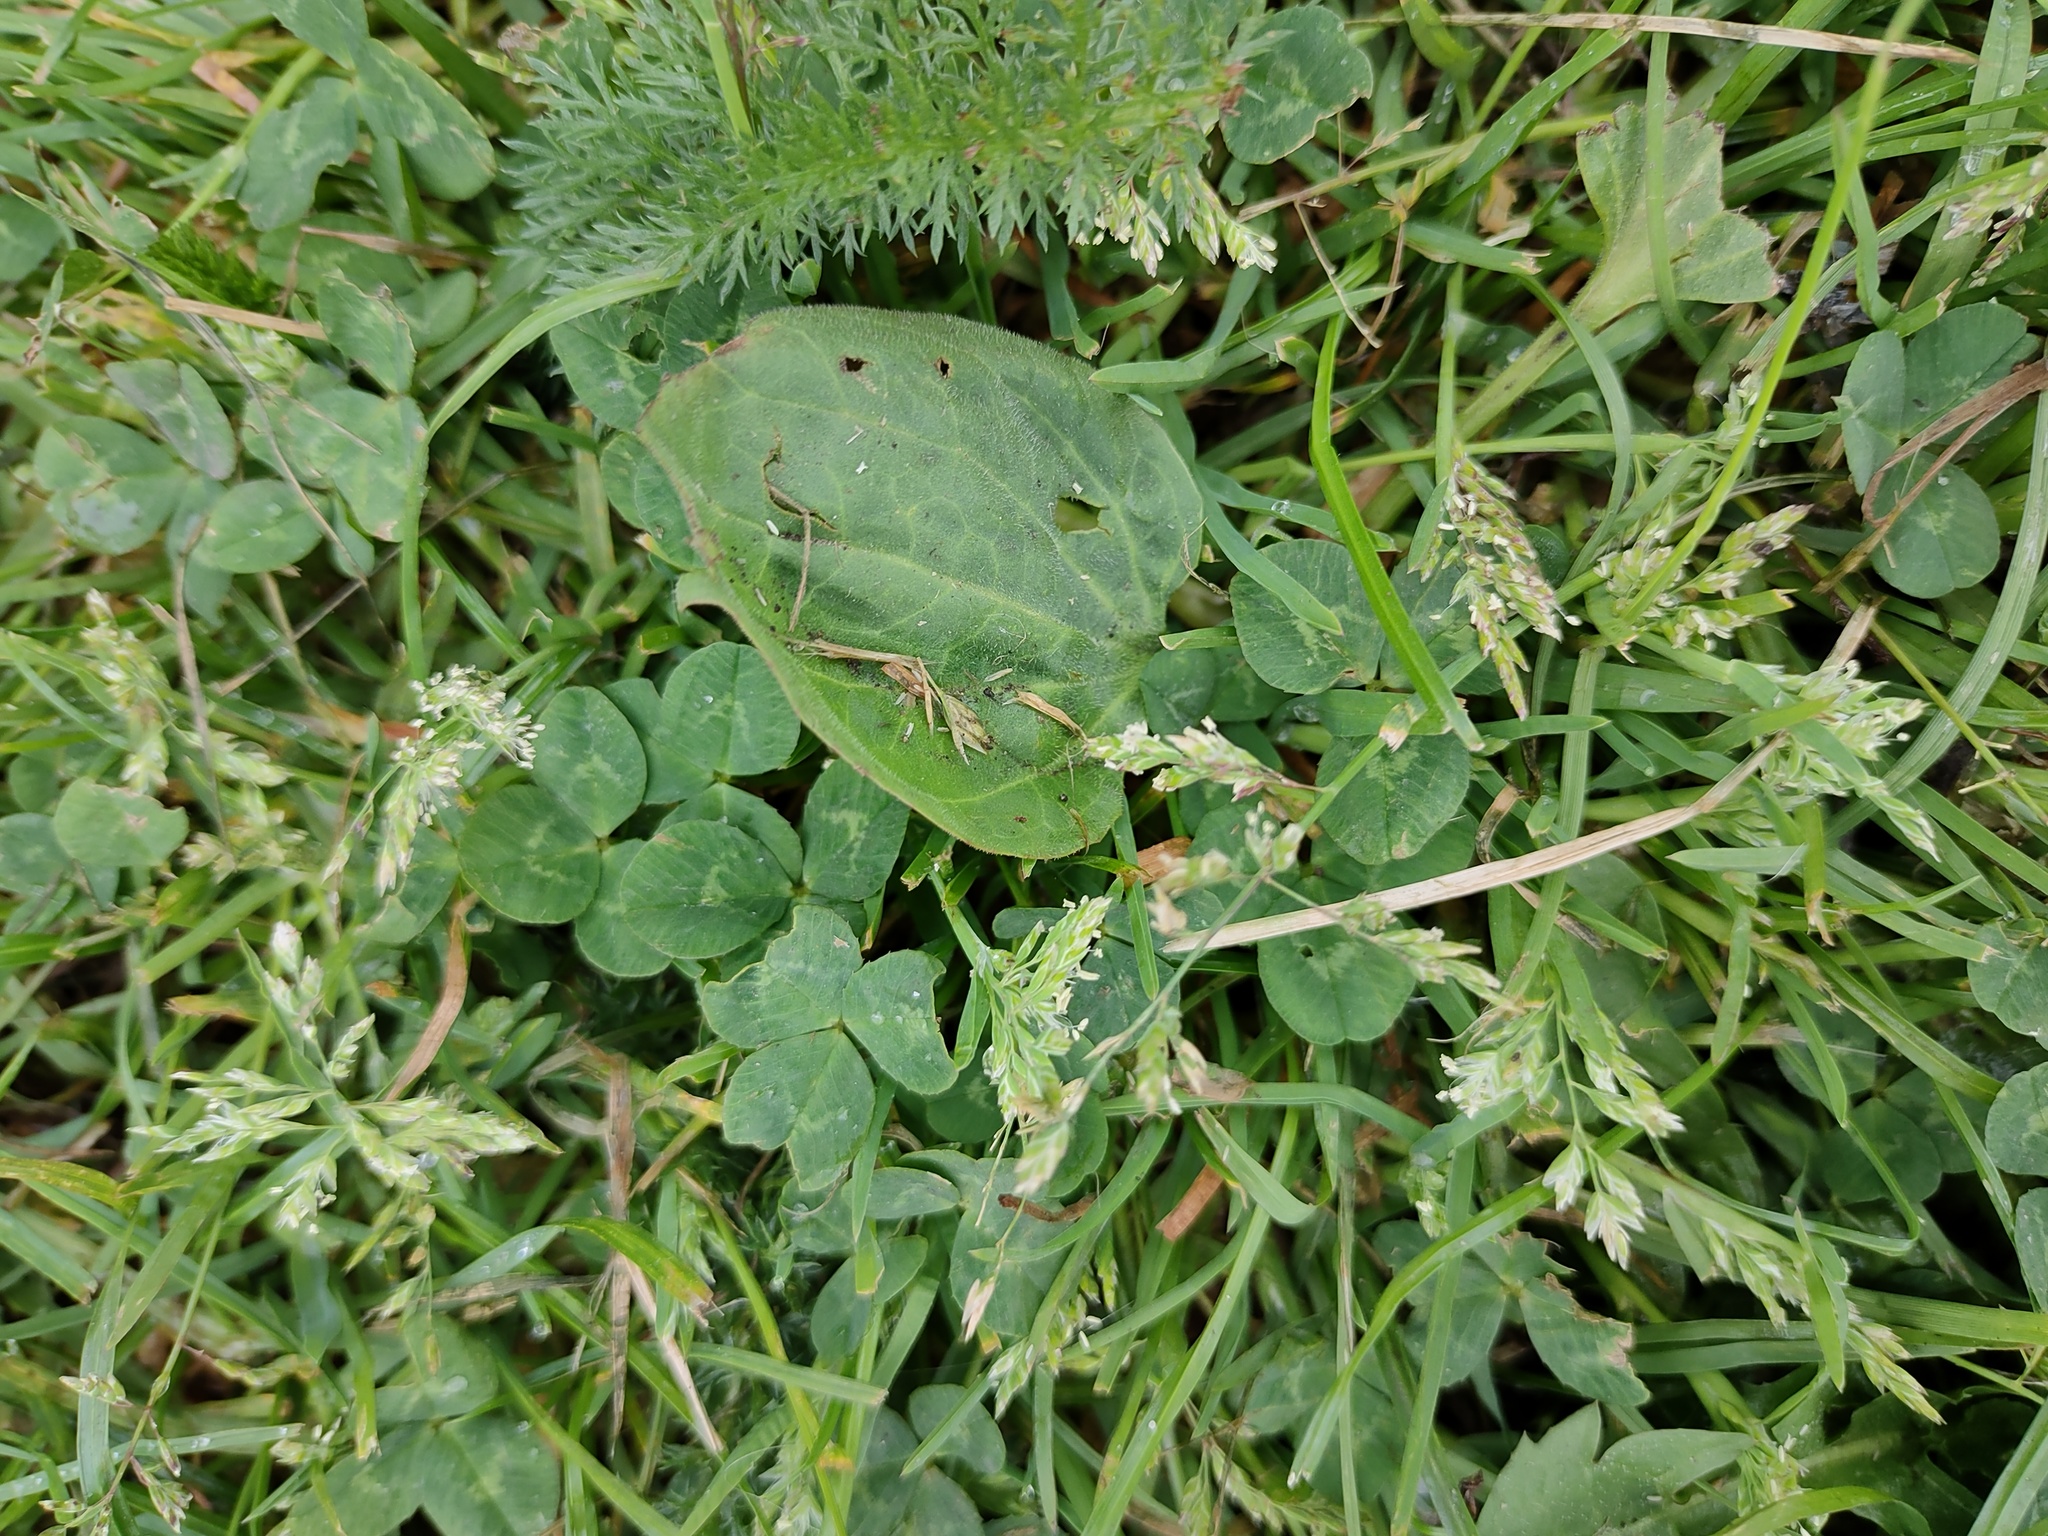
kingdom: Plantae
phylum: Tracheophyta
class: Magnoliopsida
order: Lamiales
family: Plantaginaceae
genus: Plantago
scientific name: Plantago major
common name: Common plantain
